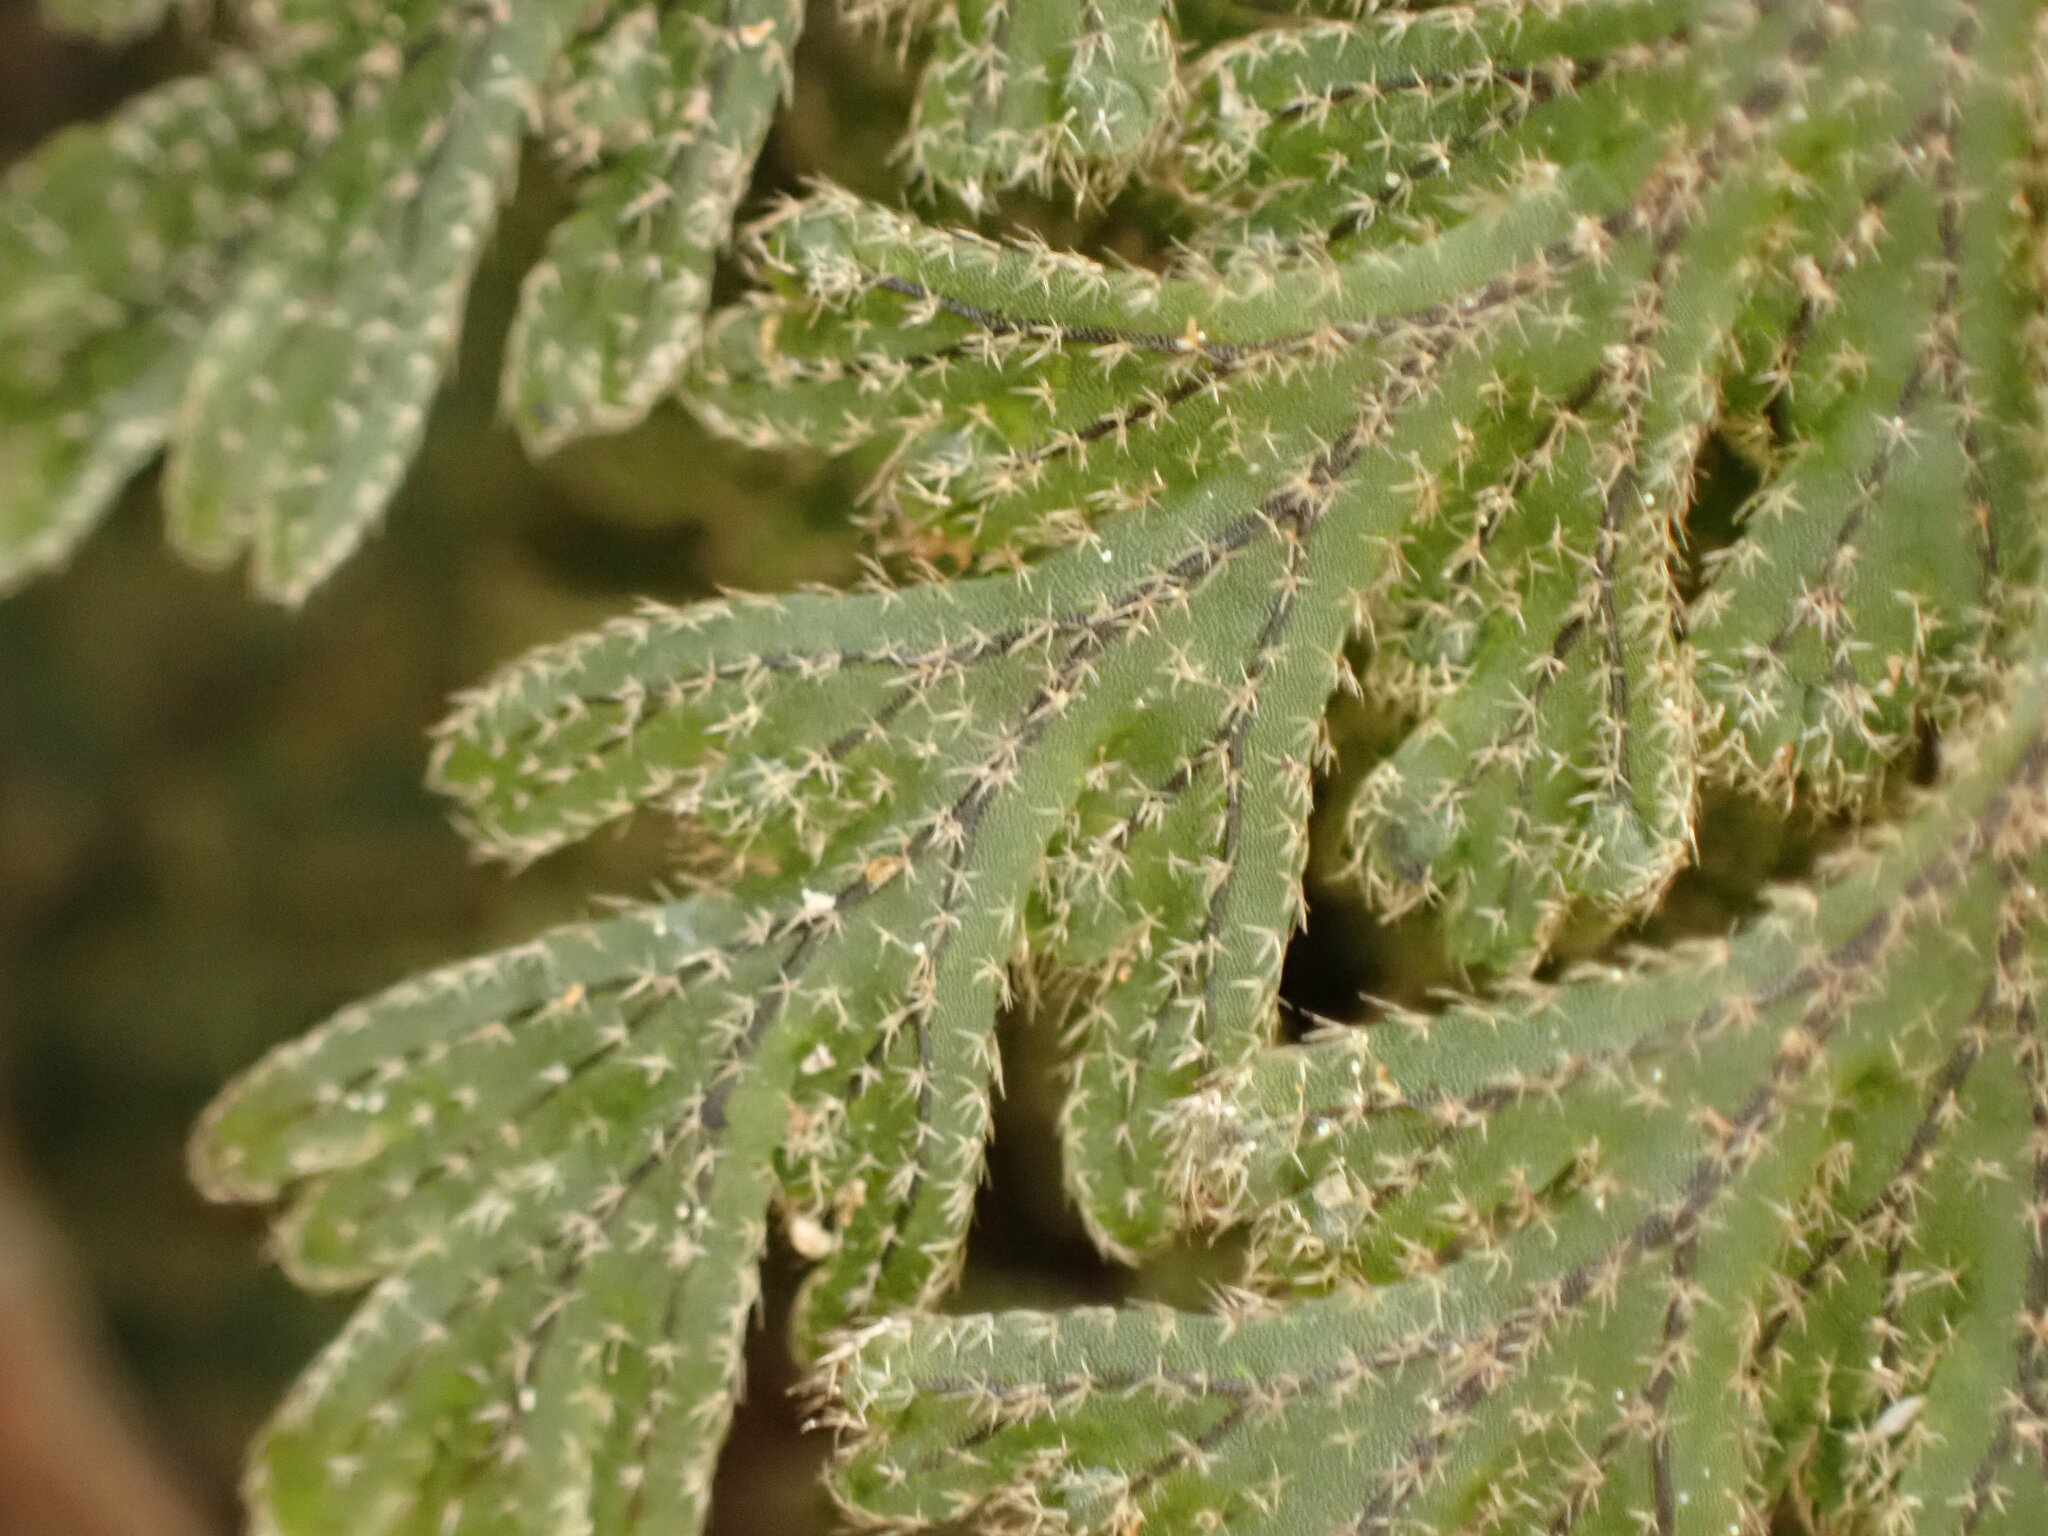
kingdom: Plantae
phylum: Tracheophyta
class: Polypodiopsida
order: Hymenophyllales
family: Hymenophyllaceae
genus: Hymenophyllum
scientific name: Hymenophyllum frankliniae
